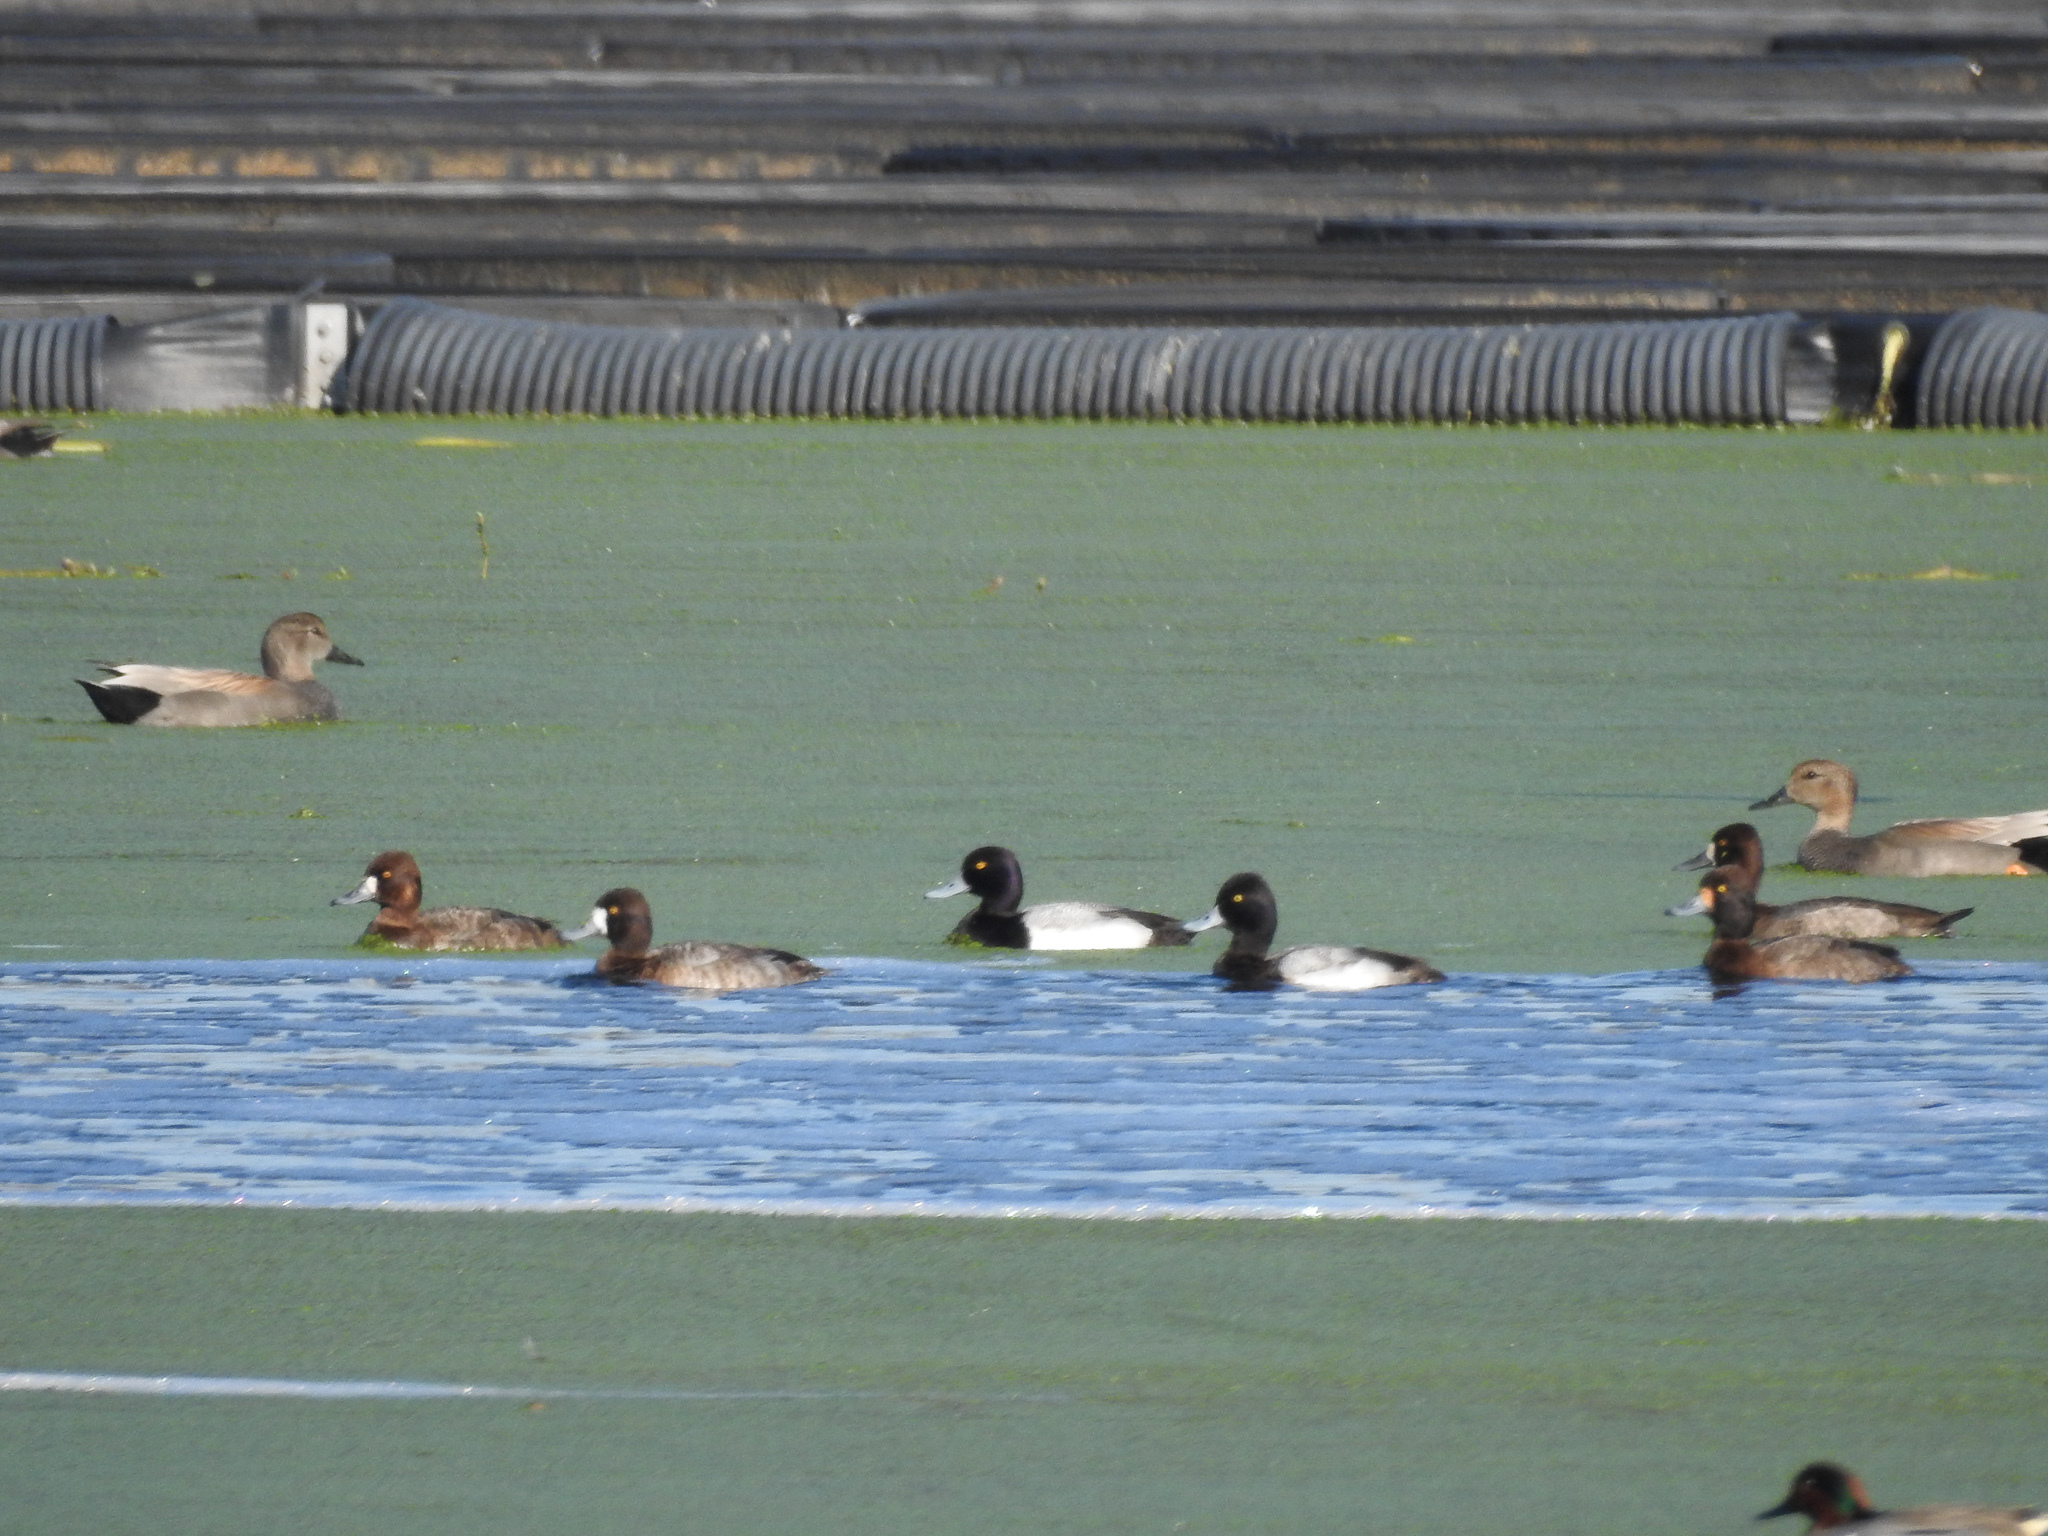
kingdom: Animalia
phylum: Chordata
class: Aves
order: Anseriformes
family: Anatidae
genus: Aythya
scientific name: Aythya affinis
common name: Lesser scaup
